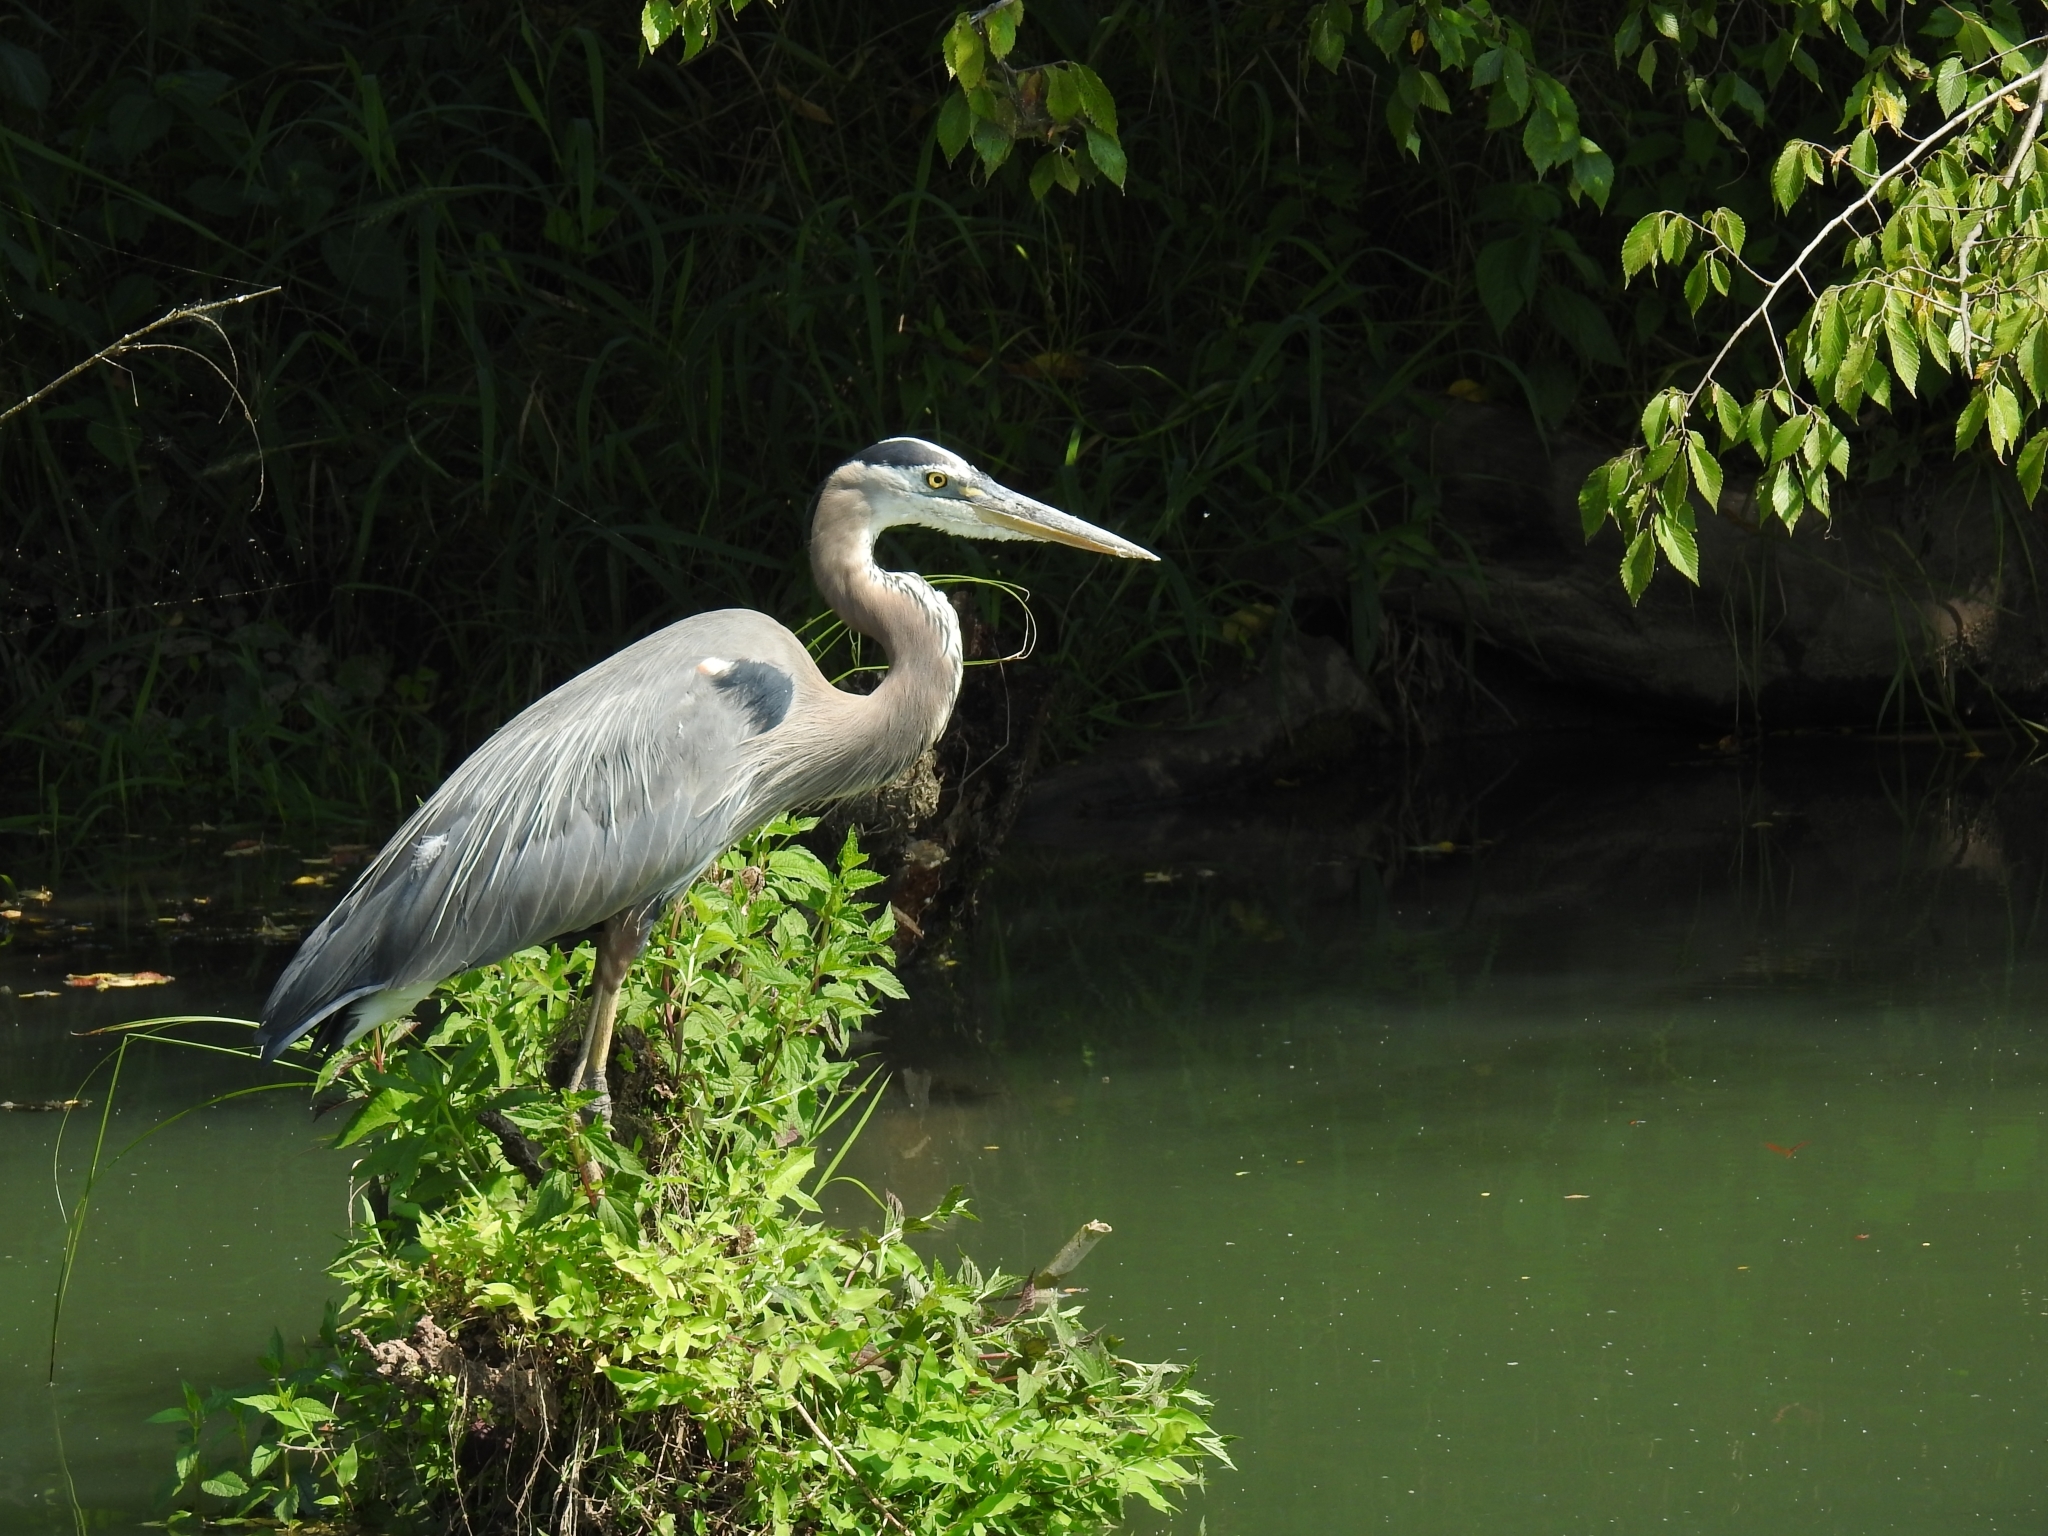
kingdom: Animalia
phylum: Chordata
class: Aves
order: Pelecaniformes
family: Ardeidae
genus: Ardea
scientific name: Ardea herodias
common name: Great blue heron
